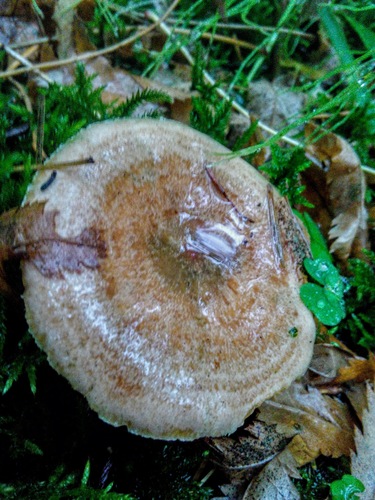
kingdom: Fungi
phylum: Basidiomycota
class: Agaricomycetes
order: Russulales
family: Russulaceae
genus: Lactarius
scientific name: Lactarius deliciosus
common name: Saffron milk-cap
